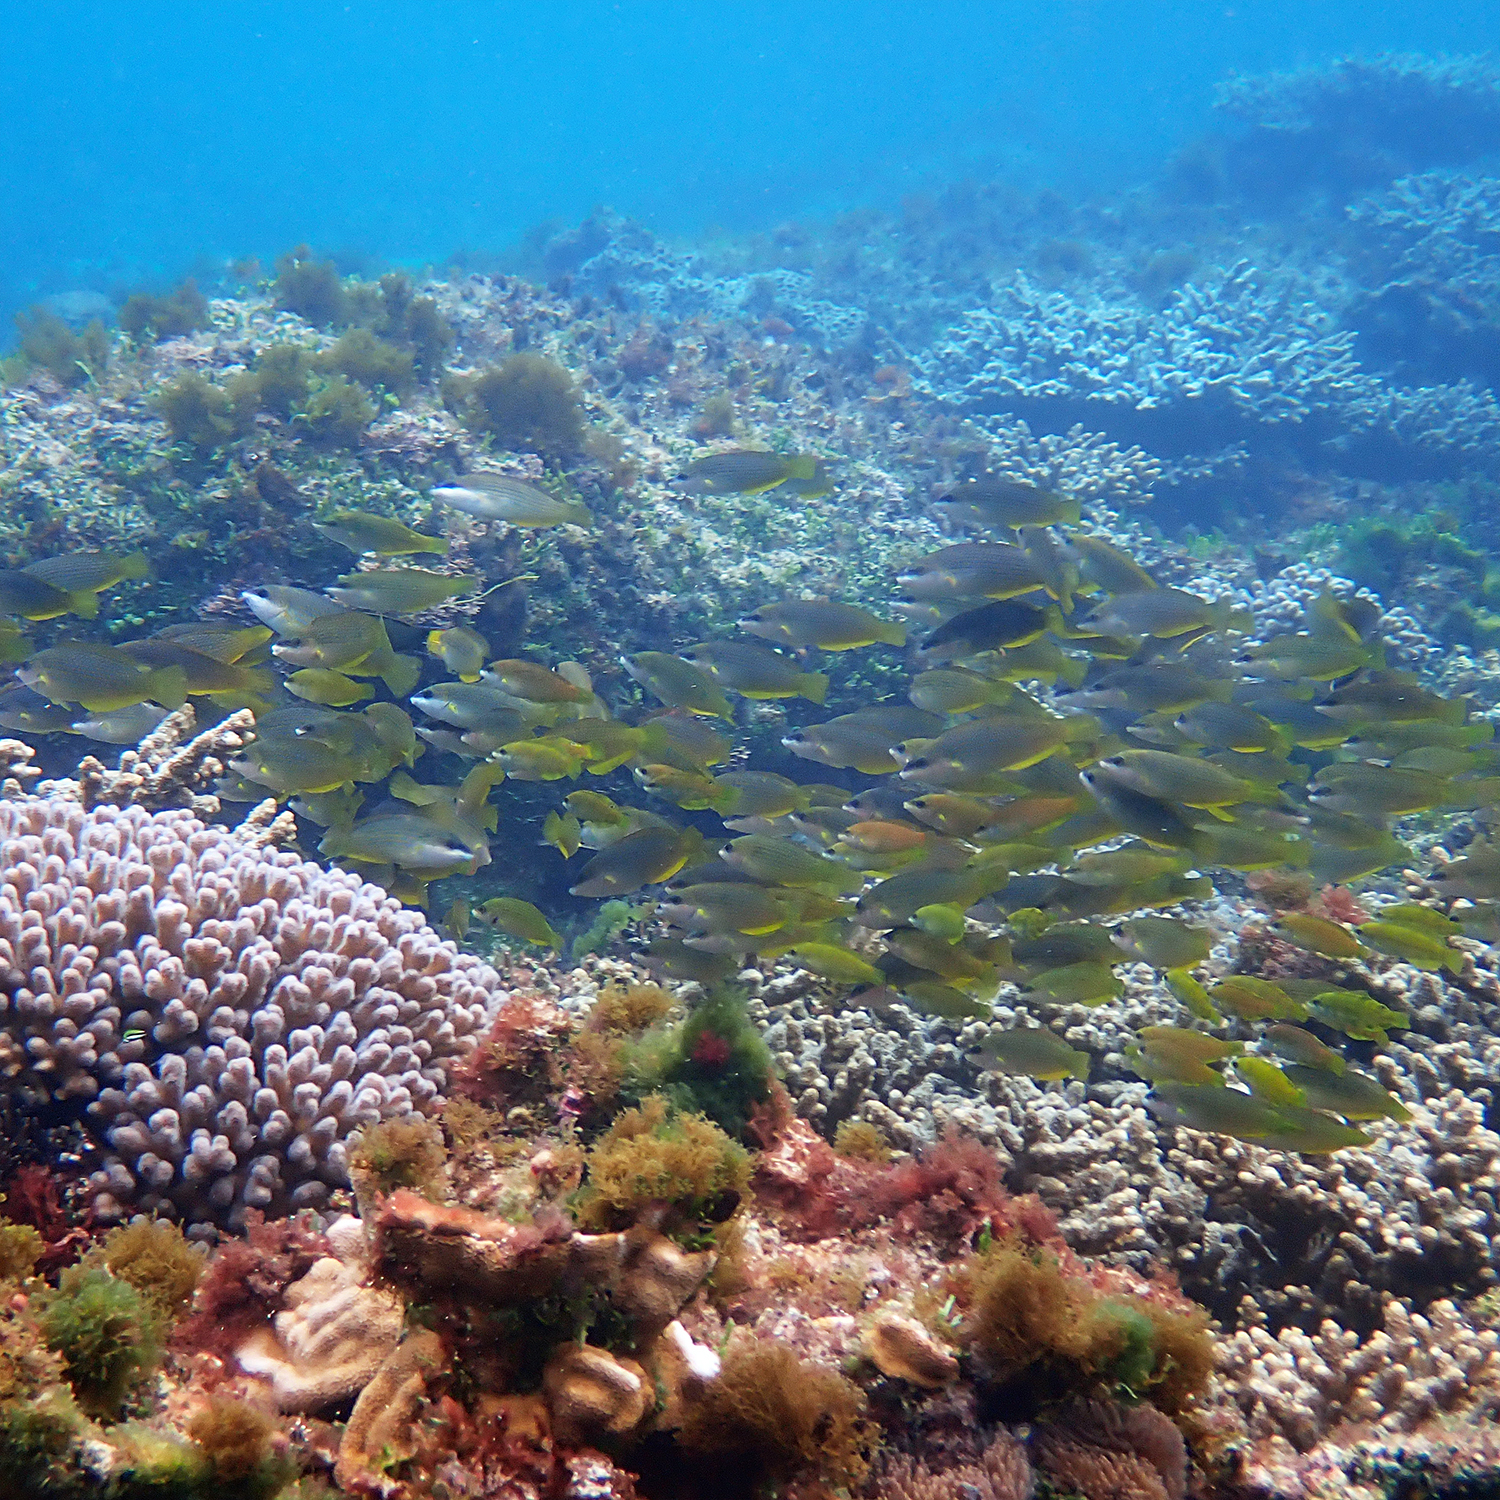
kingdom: Animalia
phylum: Chordata
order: Perciformes
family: Labridae
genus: Anampses
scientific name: Anampses elegans
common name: Elegant wrasse
